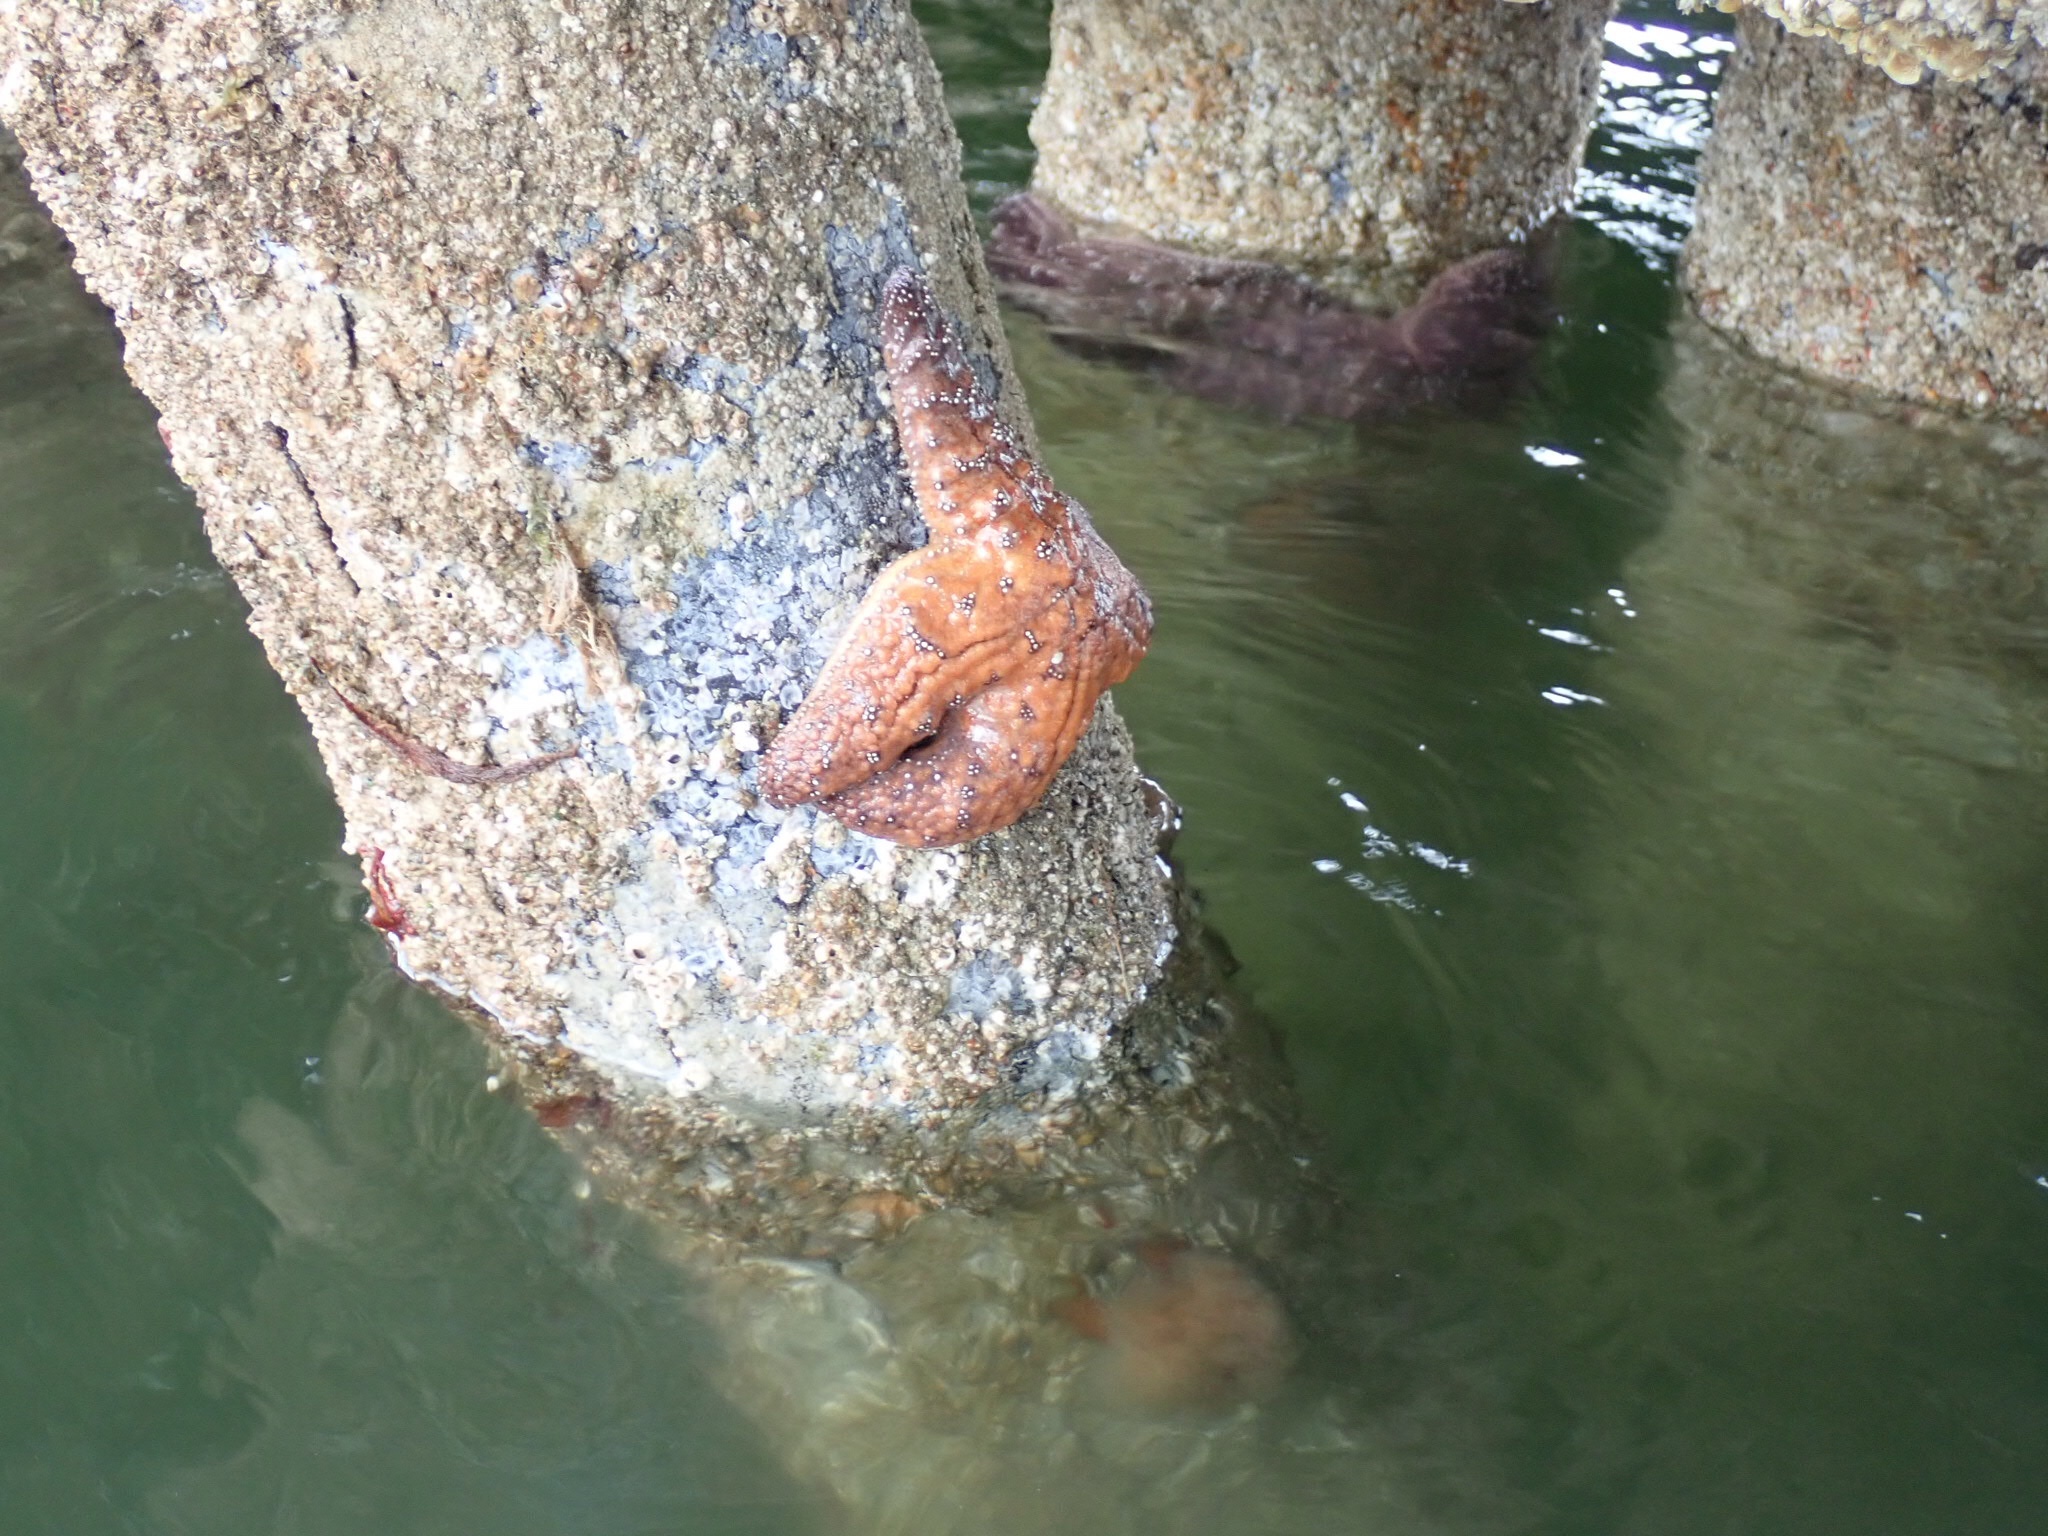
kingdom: Animalia
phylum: Echinodermata
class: Asteroidea
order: Forcipulatida
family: Asteriidae
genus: Pisaster
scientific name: Pisaster ochraceus
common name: Ochre stars
